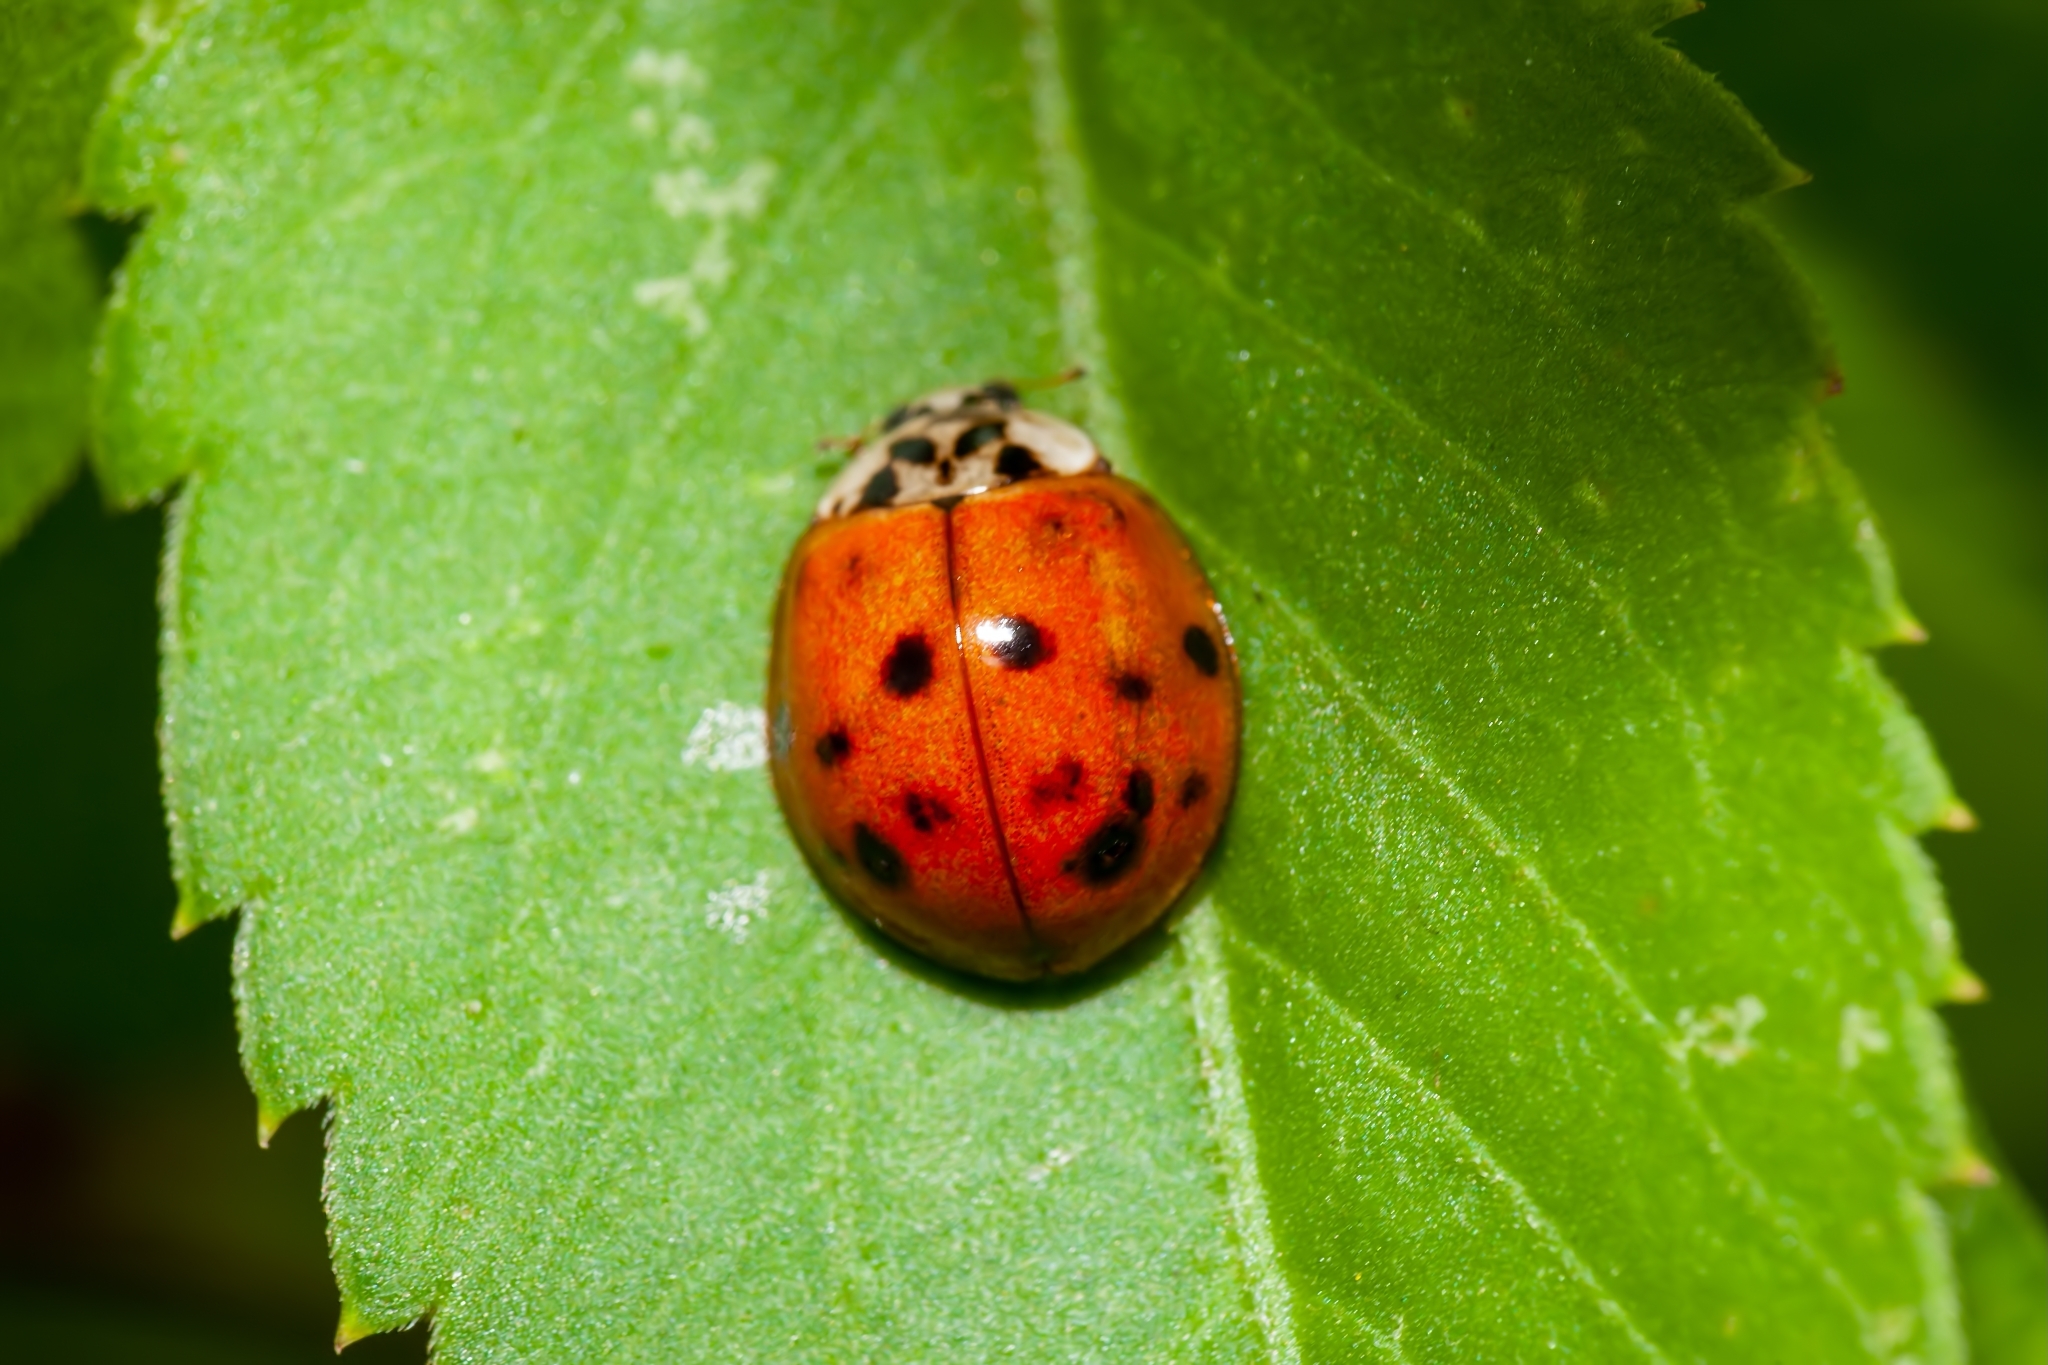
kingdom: Animalia
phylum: Arthropoda
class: Insecta
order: Coleoptera
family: Coccinellidae
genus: Harmonia
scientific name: Harmonia axyridis
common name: Harlequin ladybird
